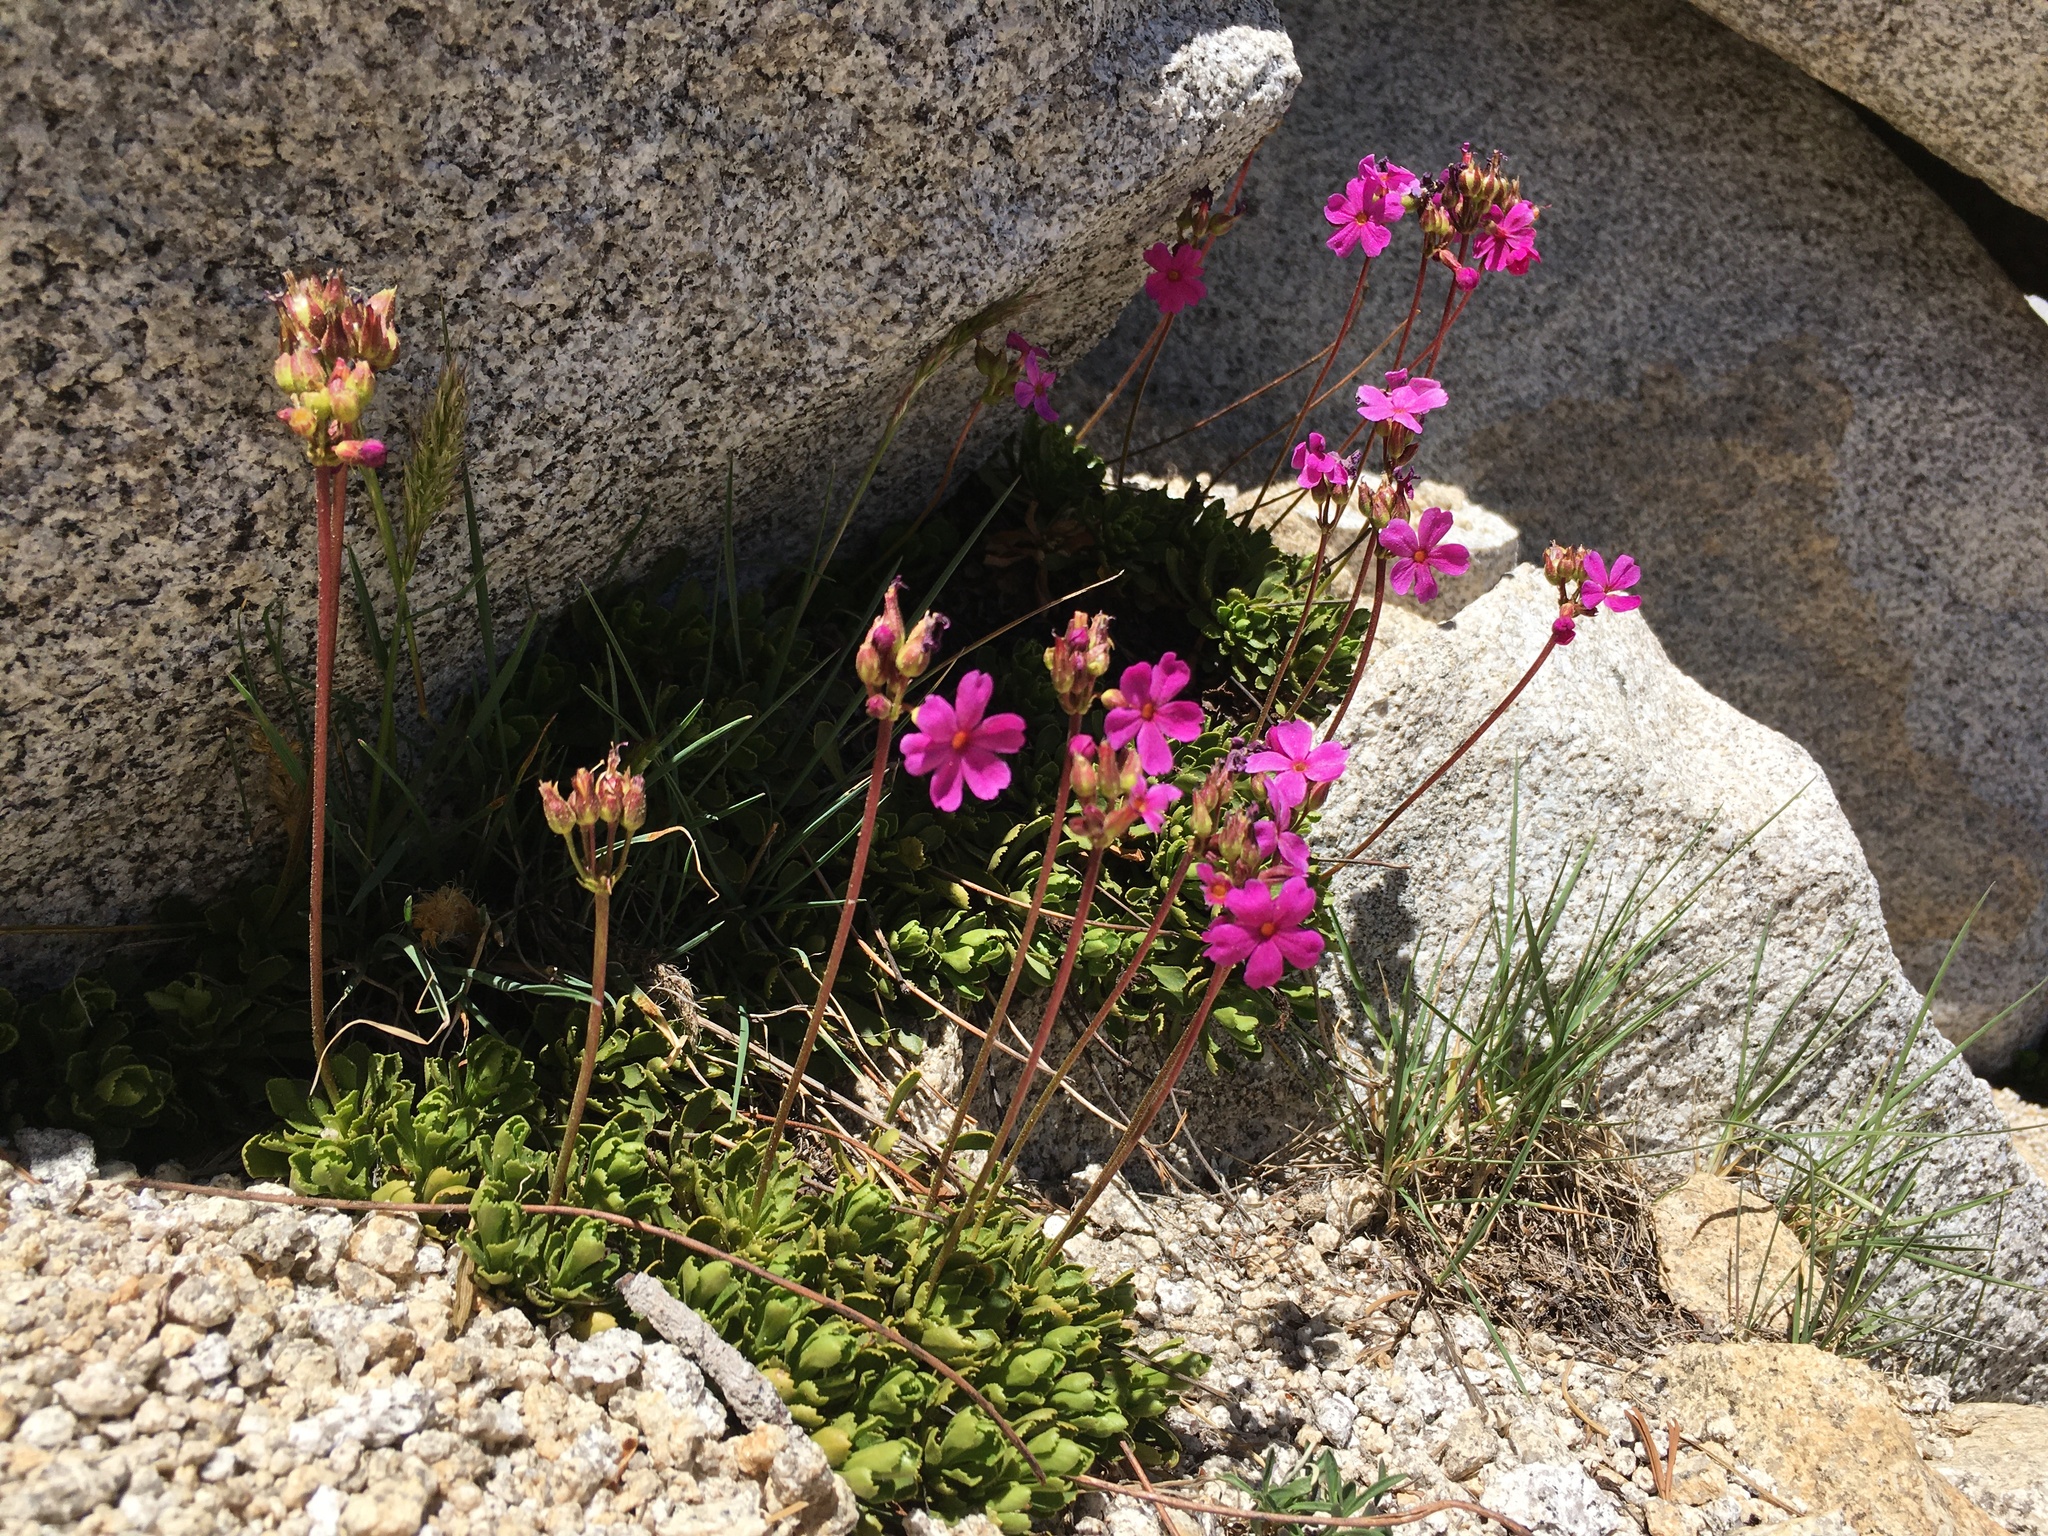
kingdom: Plantae
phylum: Tracheophyta
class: Magnoliopsida
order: Ericales
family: Primulaceae
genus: Primula
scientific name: Primula suffrutescens
